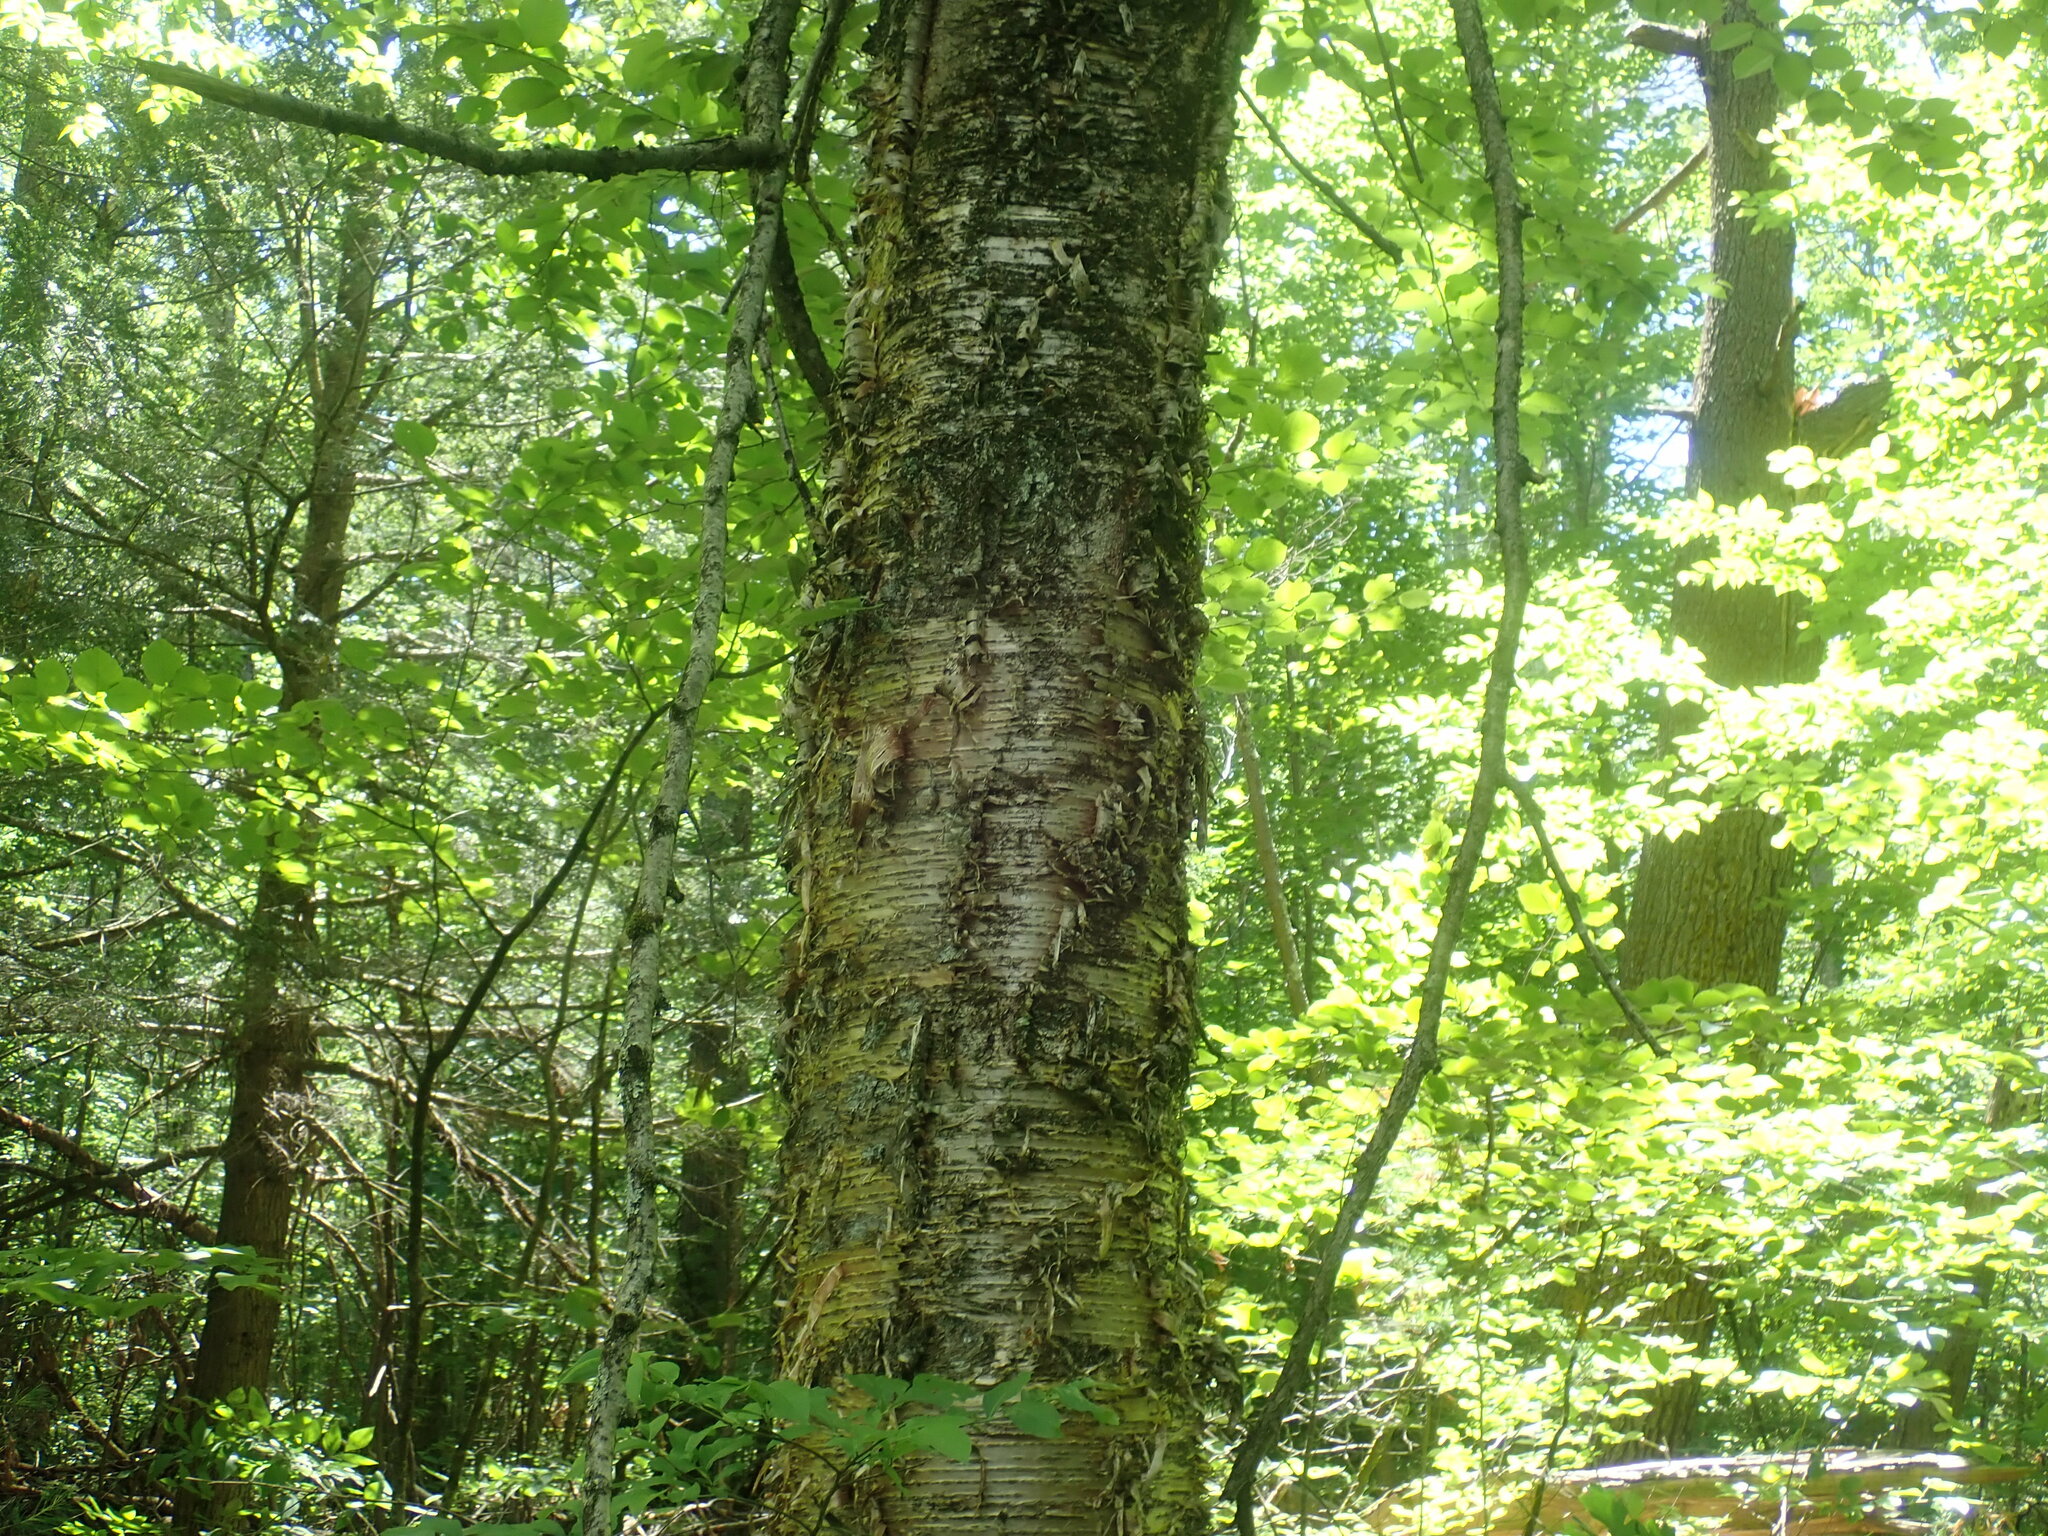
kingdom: Plantae
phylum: Tracheophyta
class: Magnoliopsida
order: Fagales
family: Betulaceae
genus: Betula
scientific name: Betula alleghaniensis
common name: Yellow birch
